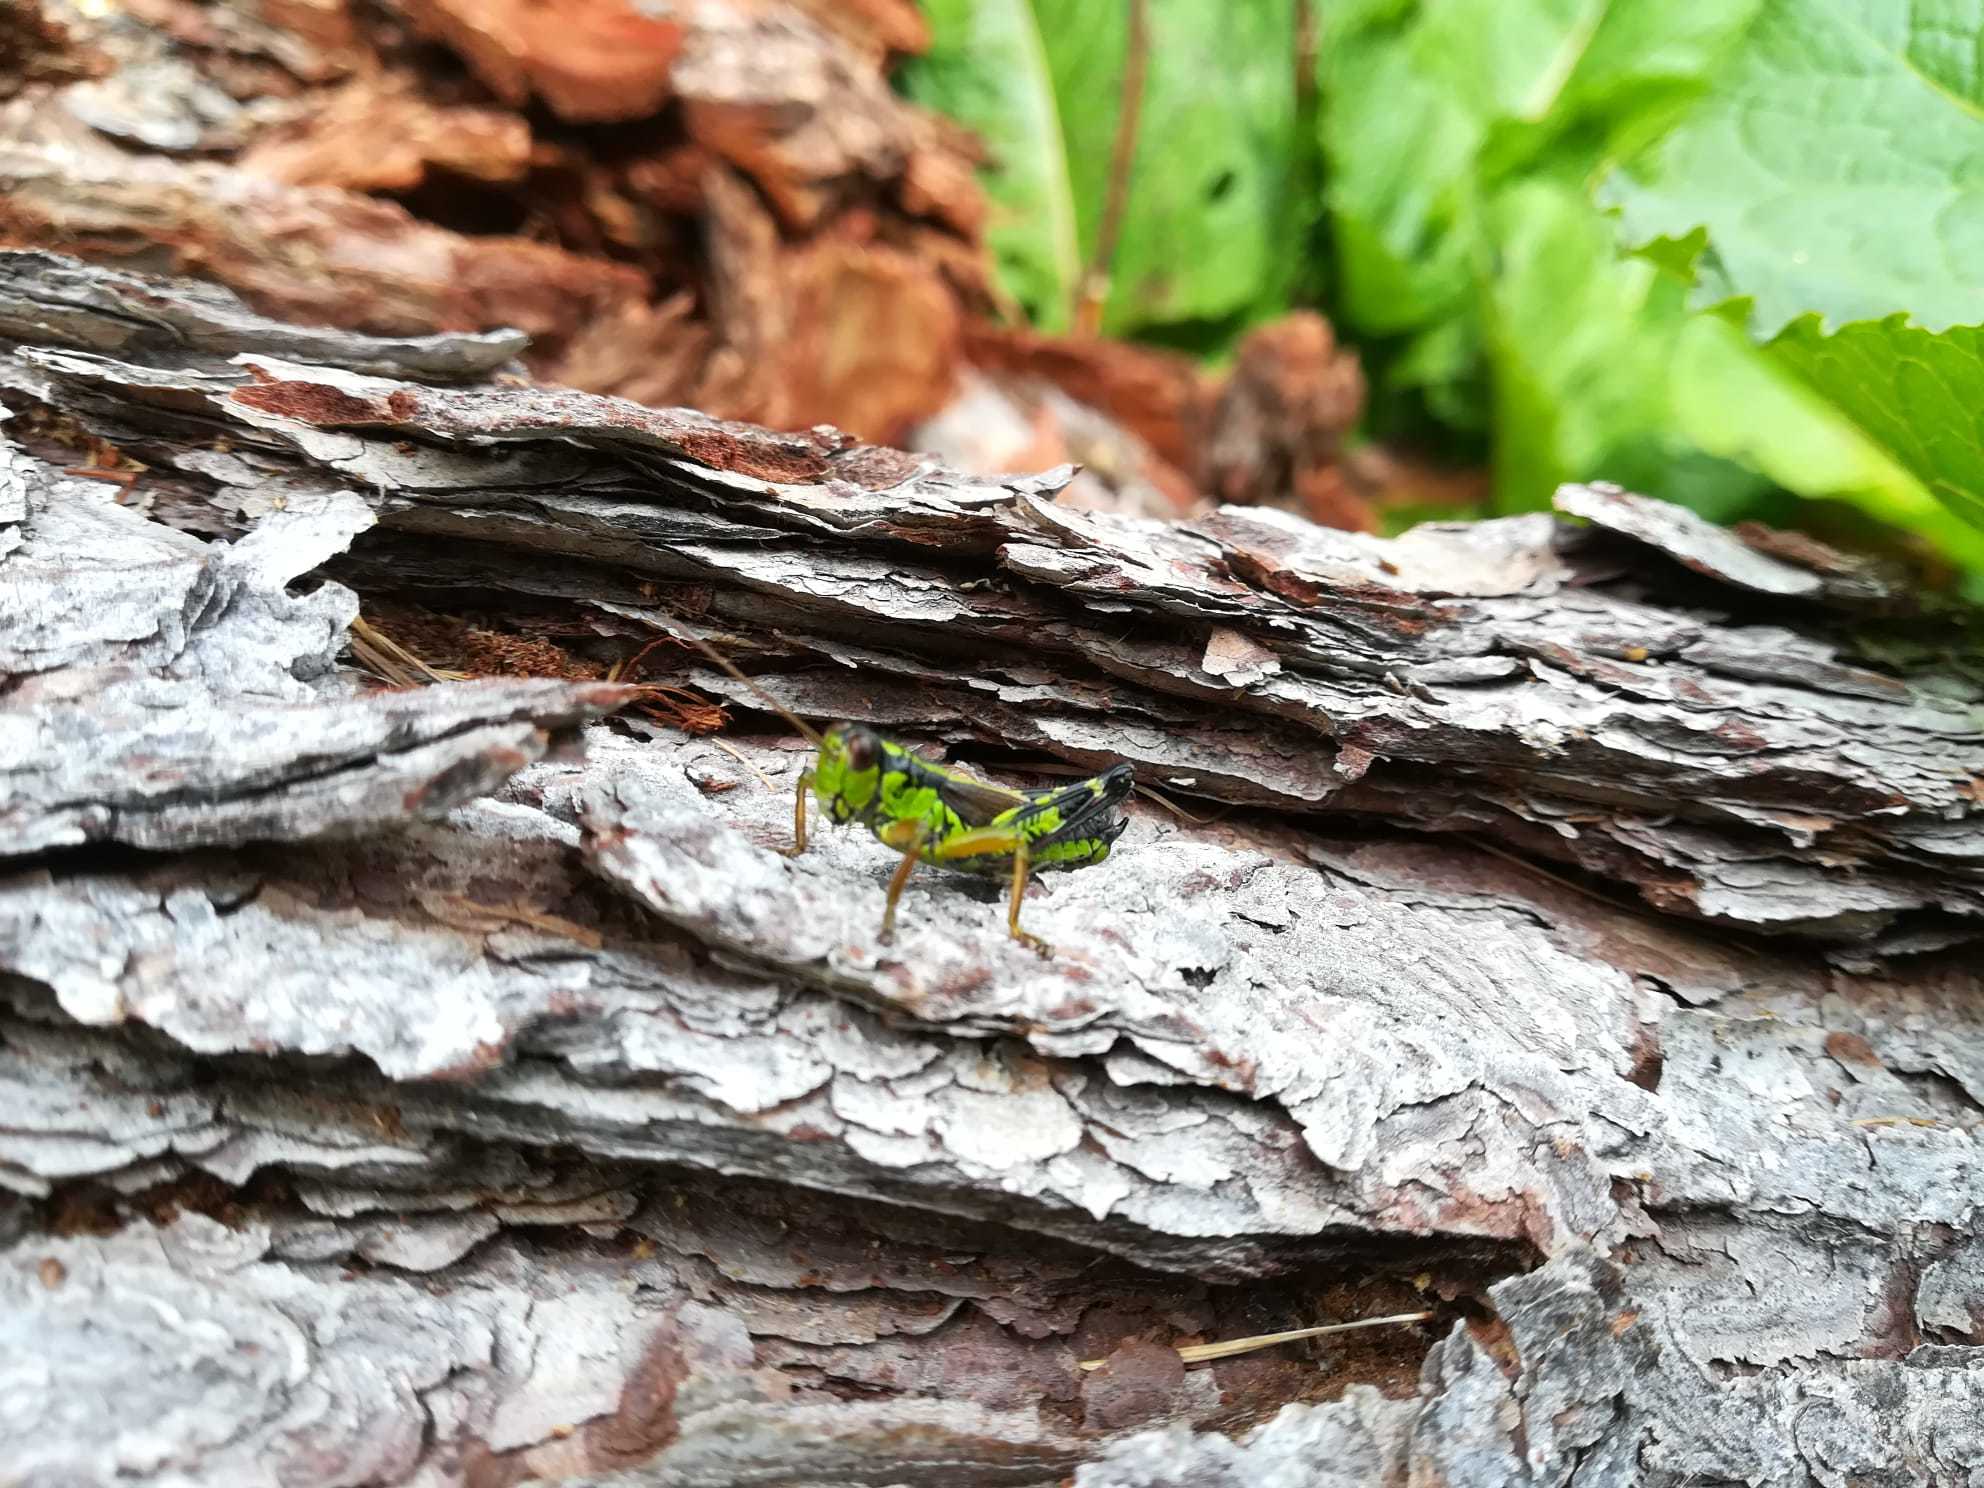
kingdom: Animalia
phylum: Arthropoda
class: Insecta
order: Orthoptera
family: Acrididae
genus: Miramella
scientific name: Miramella irena
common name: Long-winged mountain grasshopper
